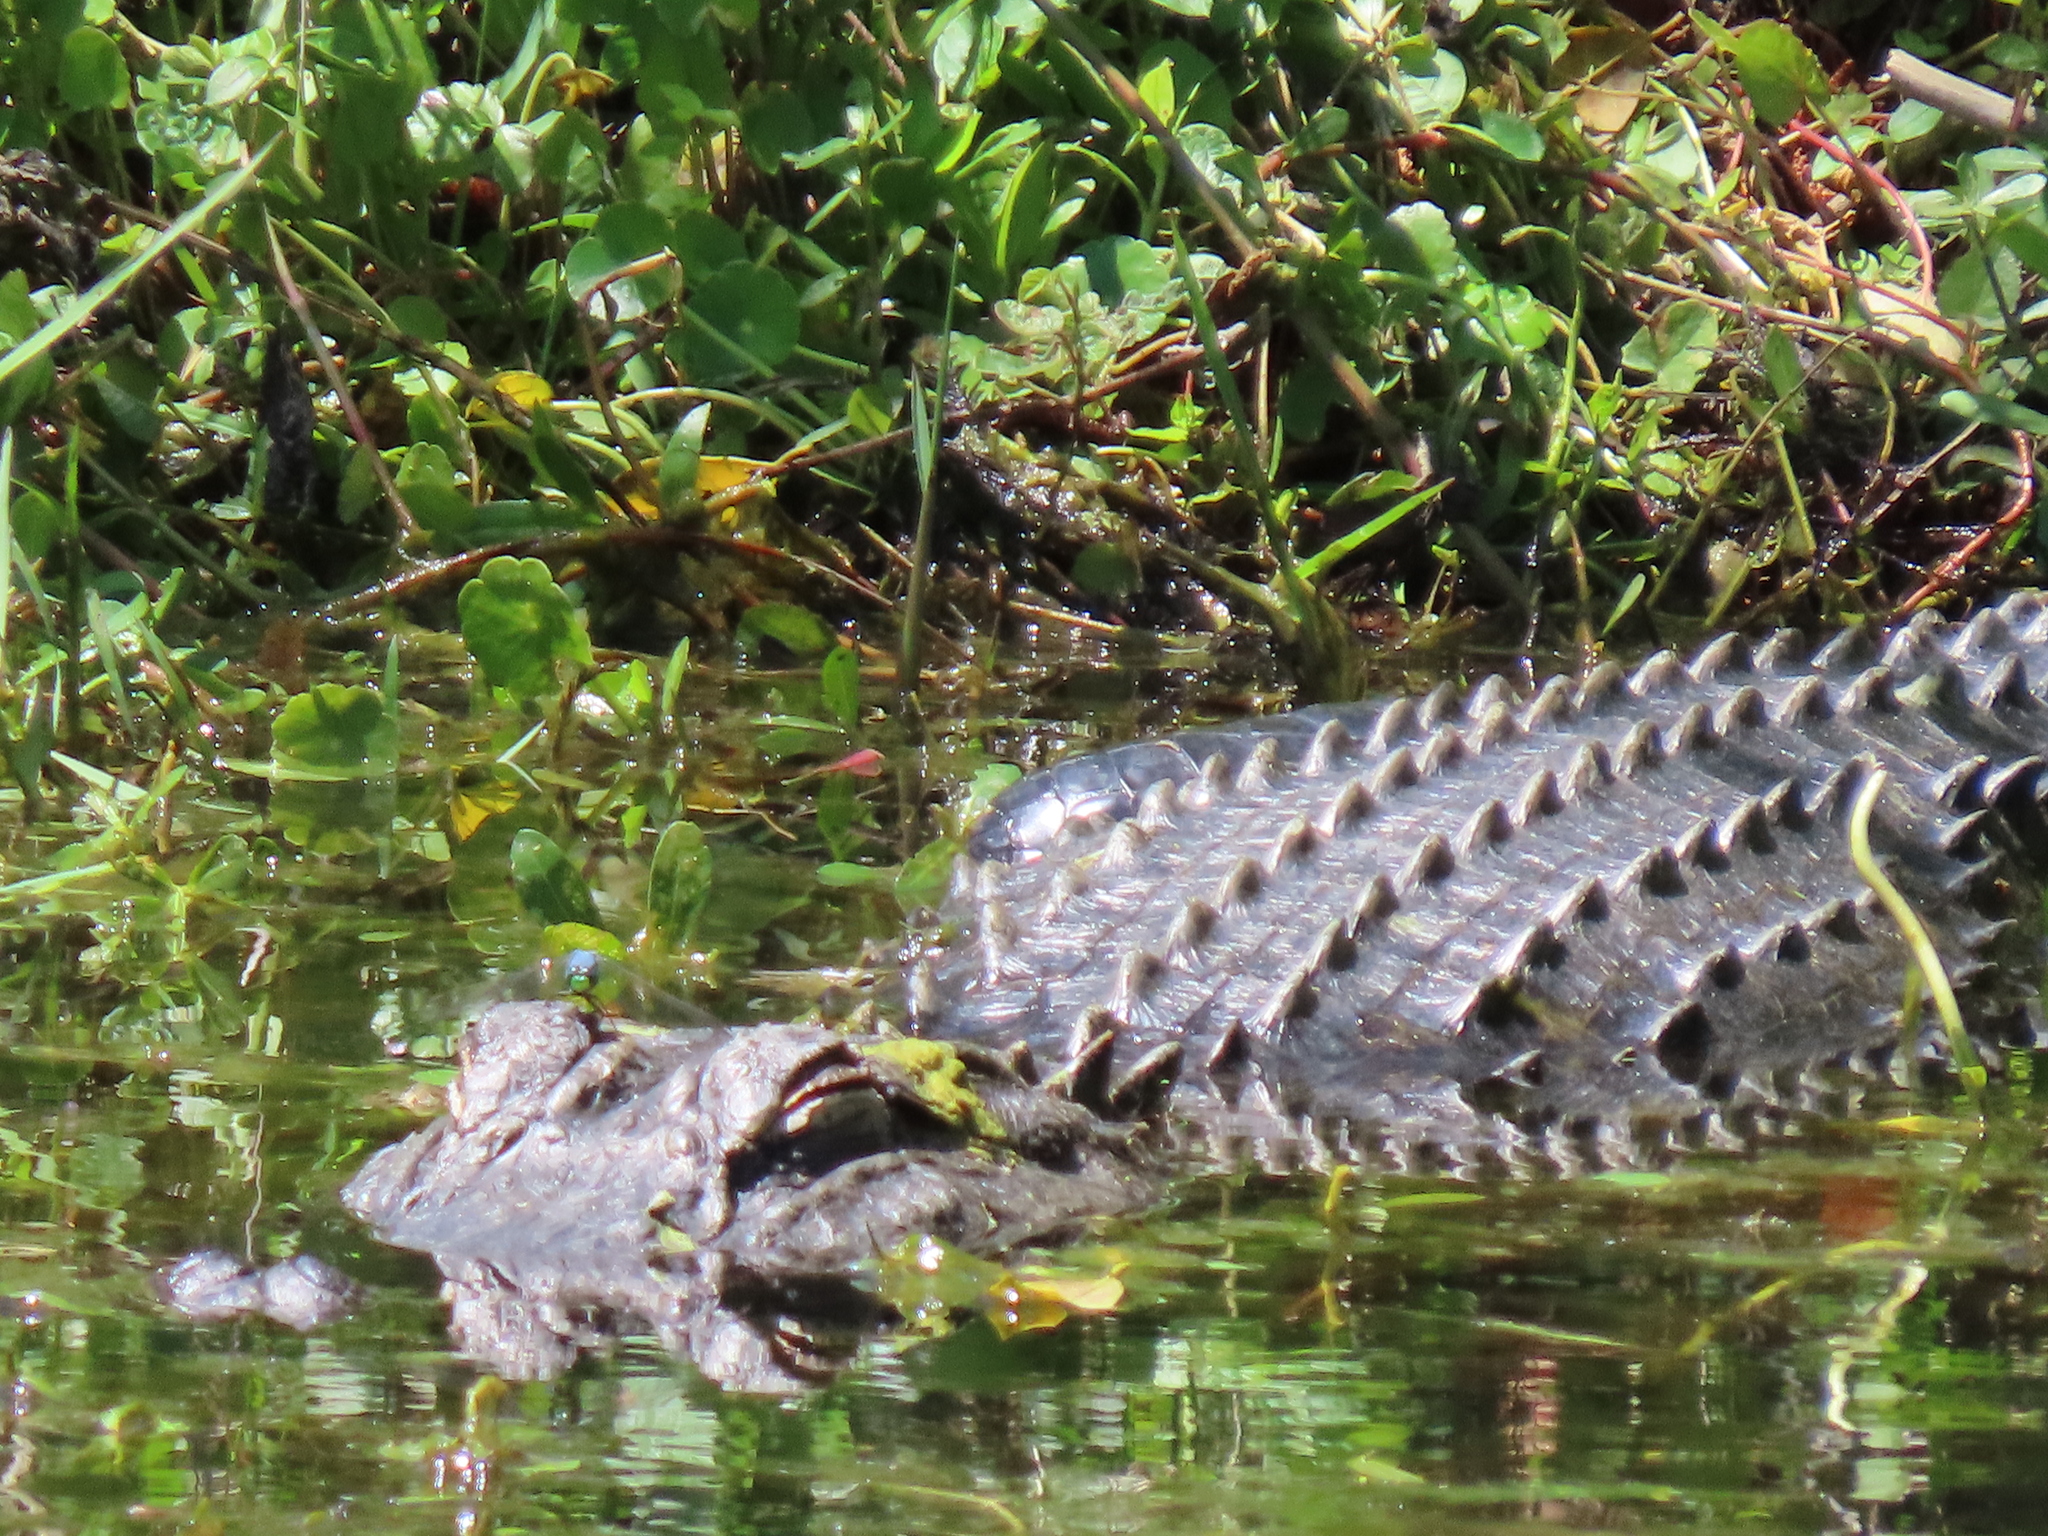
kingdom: Animalia
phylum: Chordata
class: Crocodylia
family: Alligatoridae
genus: Alligator
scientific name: Alligator mississippiensis
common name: American alligator
